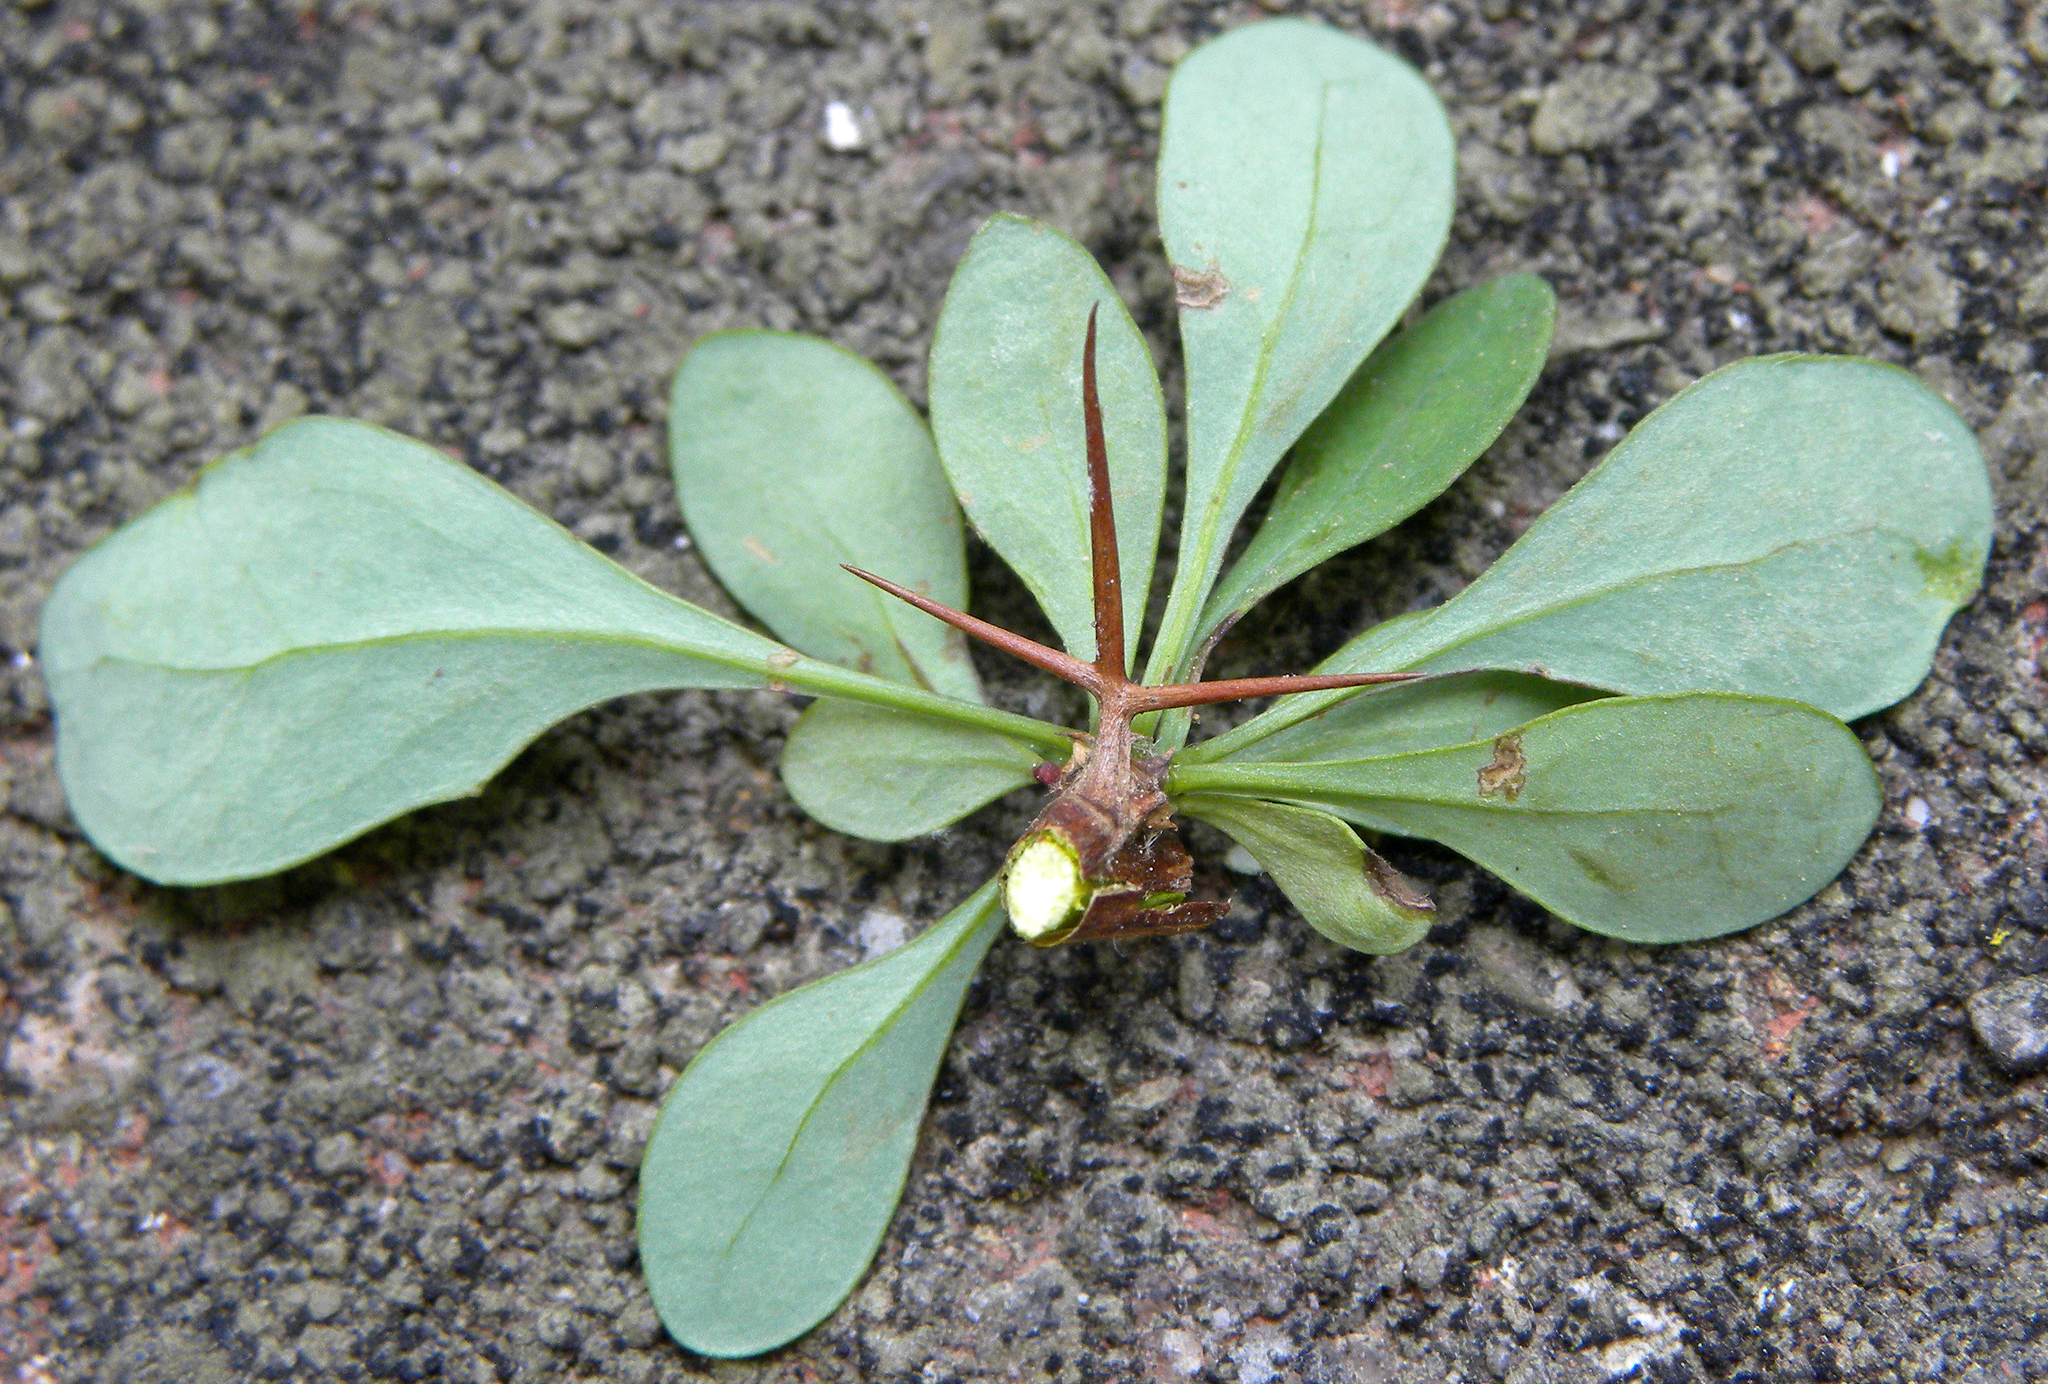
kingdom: Plantae
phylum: Tracheophyta
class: Magnoliopsida
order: Ranunculales
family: Berberidaceae
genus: Berberis
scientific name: Berberis thunbergii
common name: Japanese barberry
